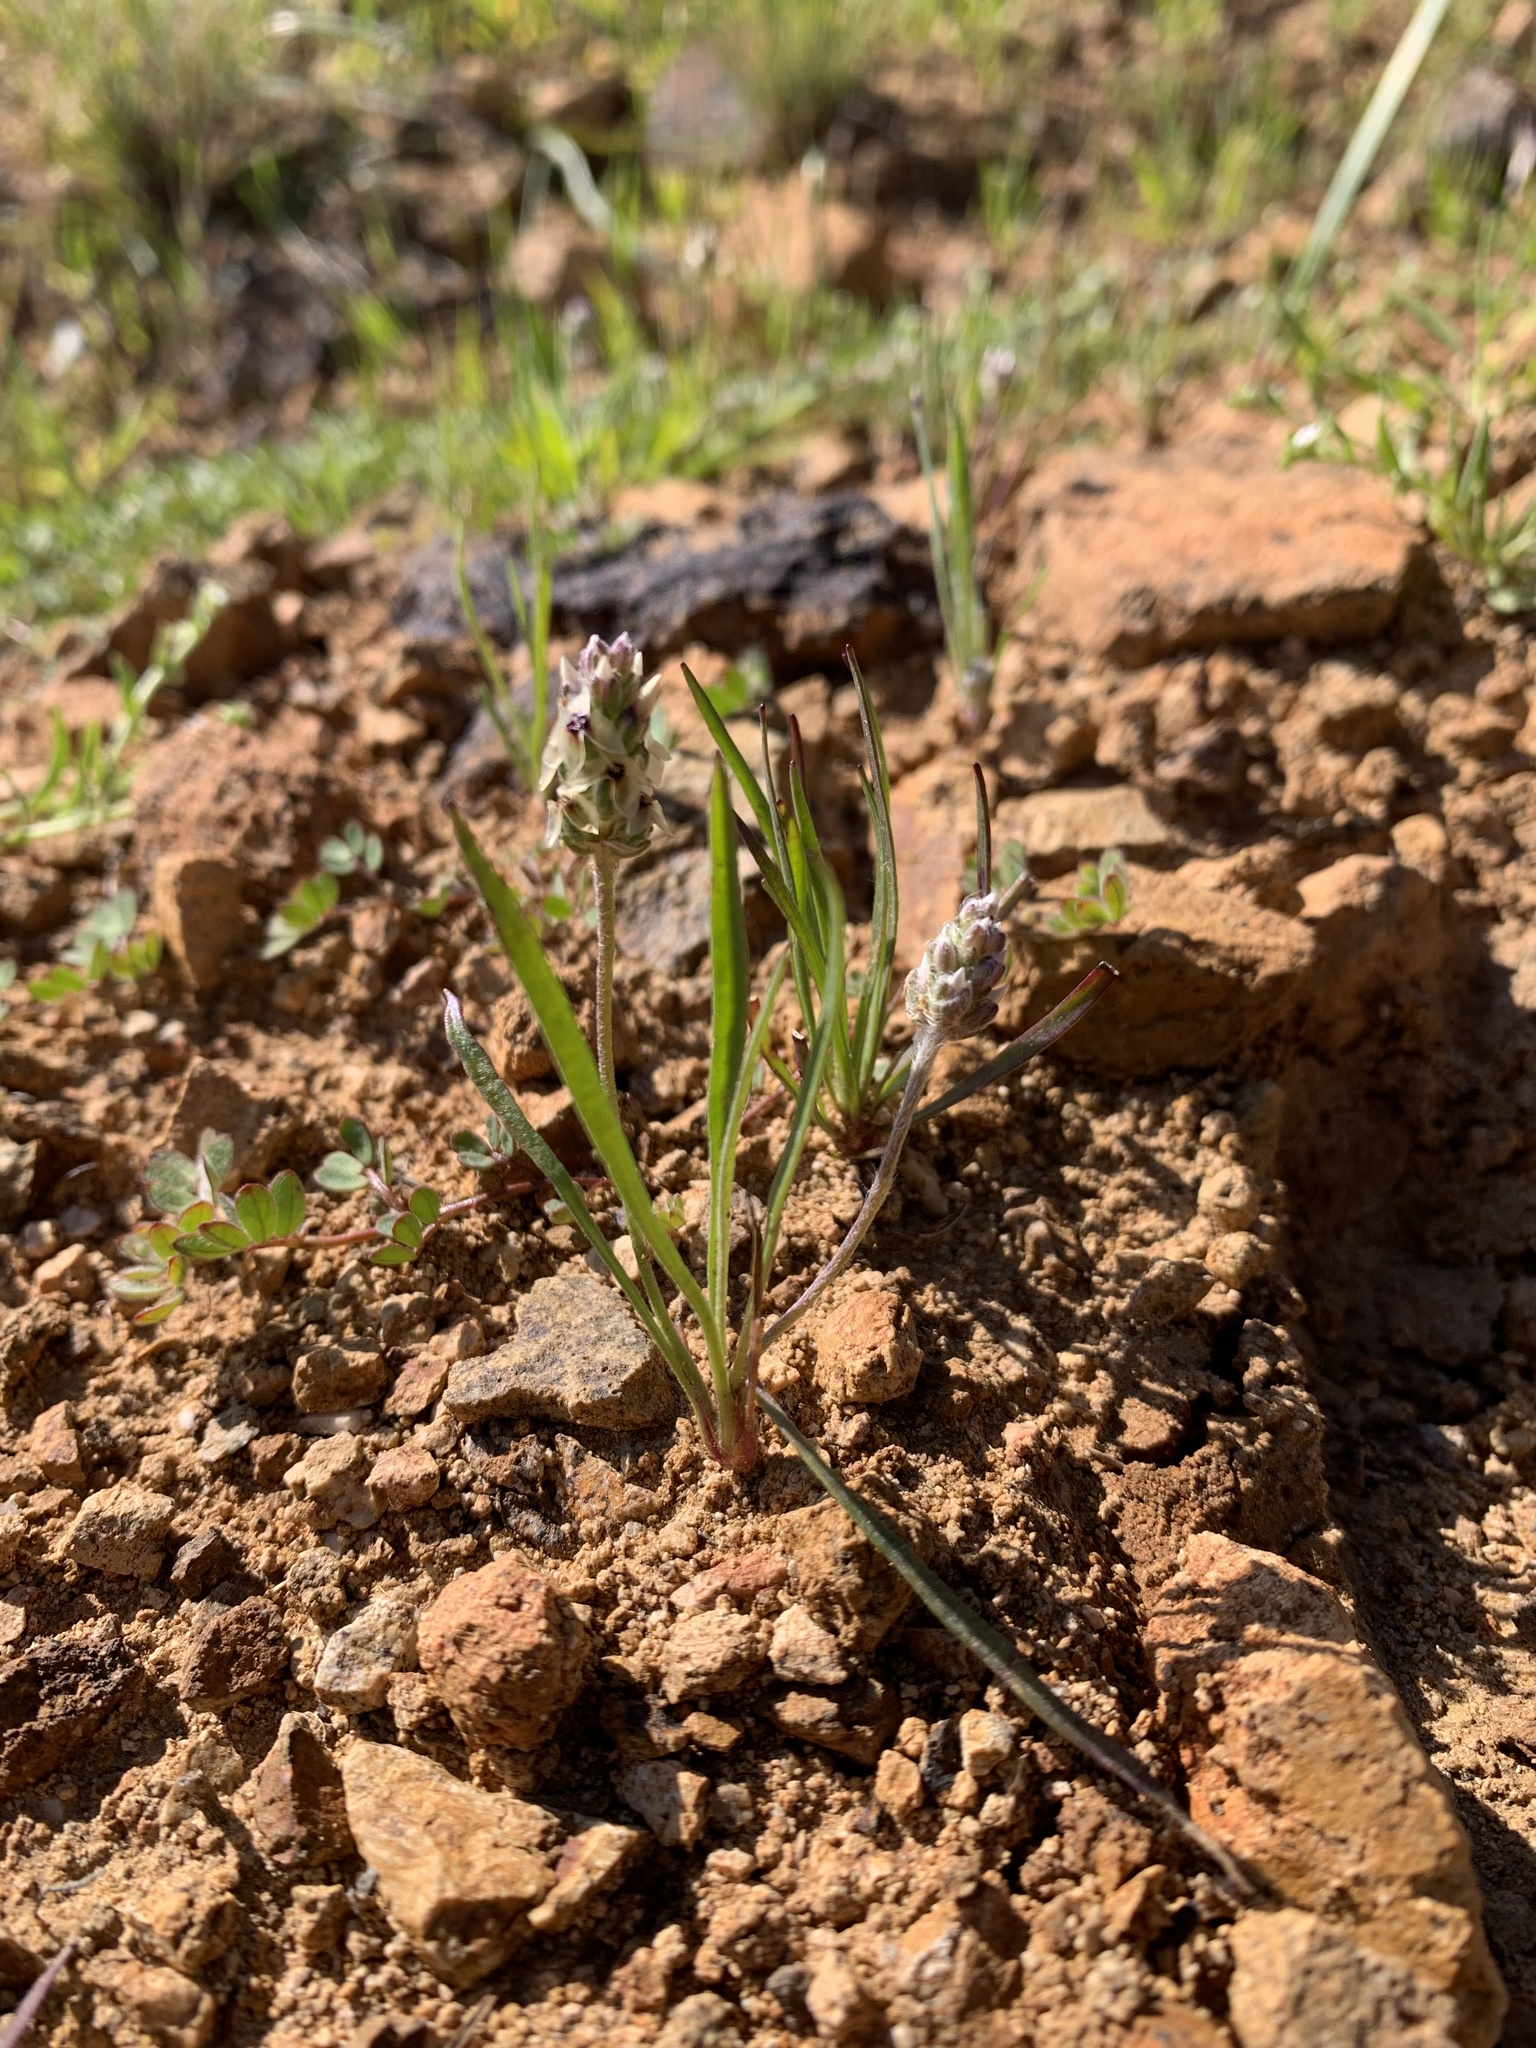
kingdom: Plantae
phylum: Tracheophyta
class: Magnoliopsida
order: Lamiales
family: Plantaginaceae
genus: Plantago
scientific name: Plantago erecta
